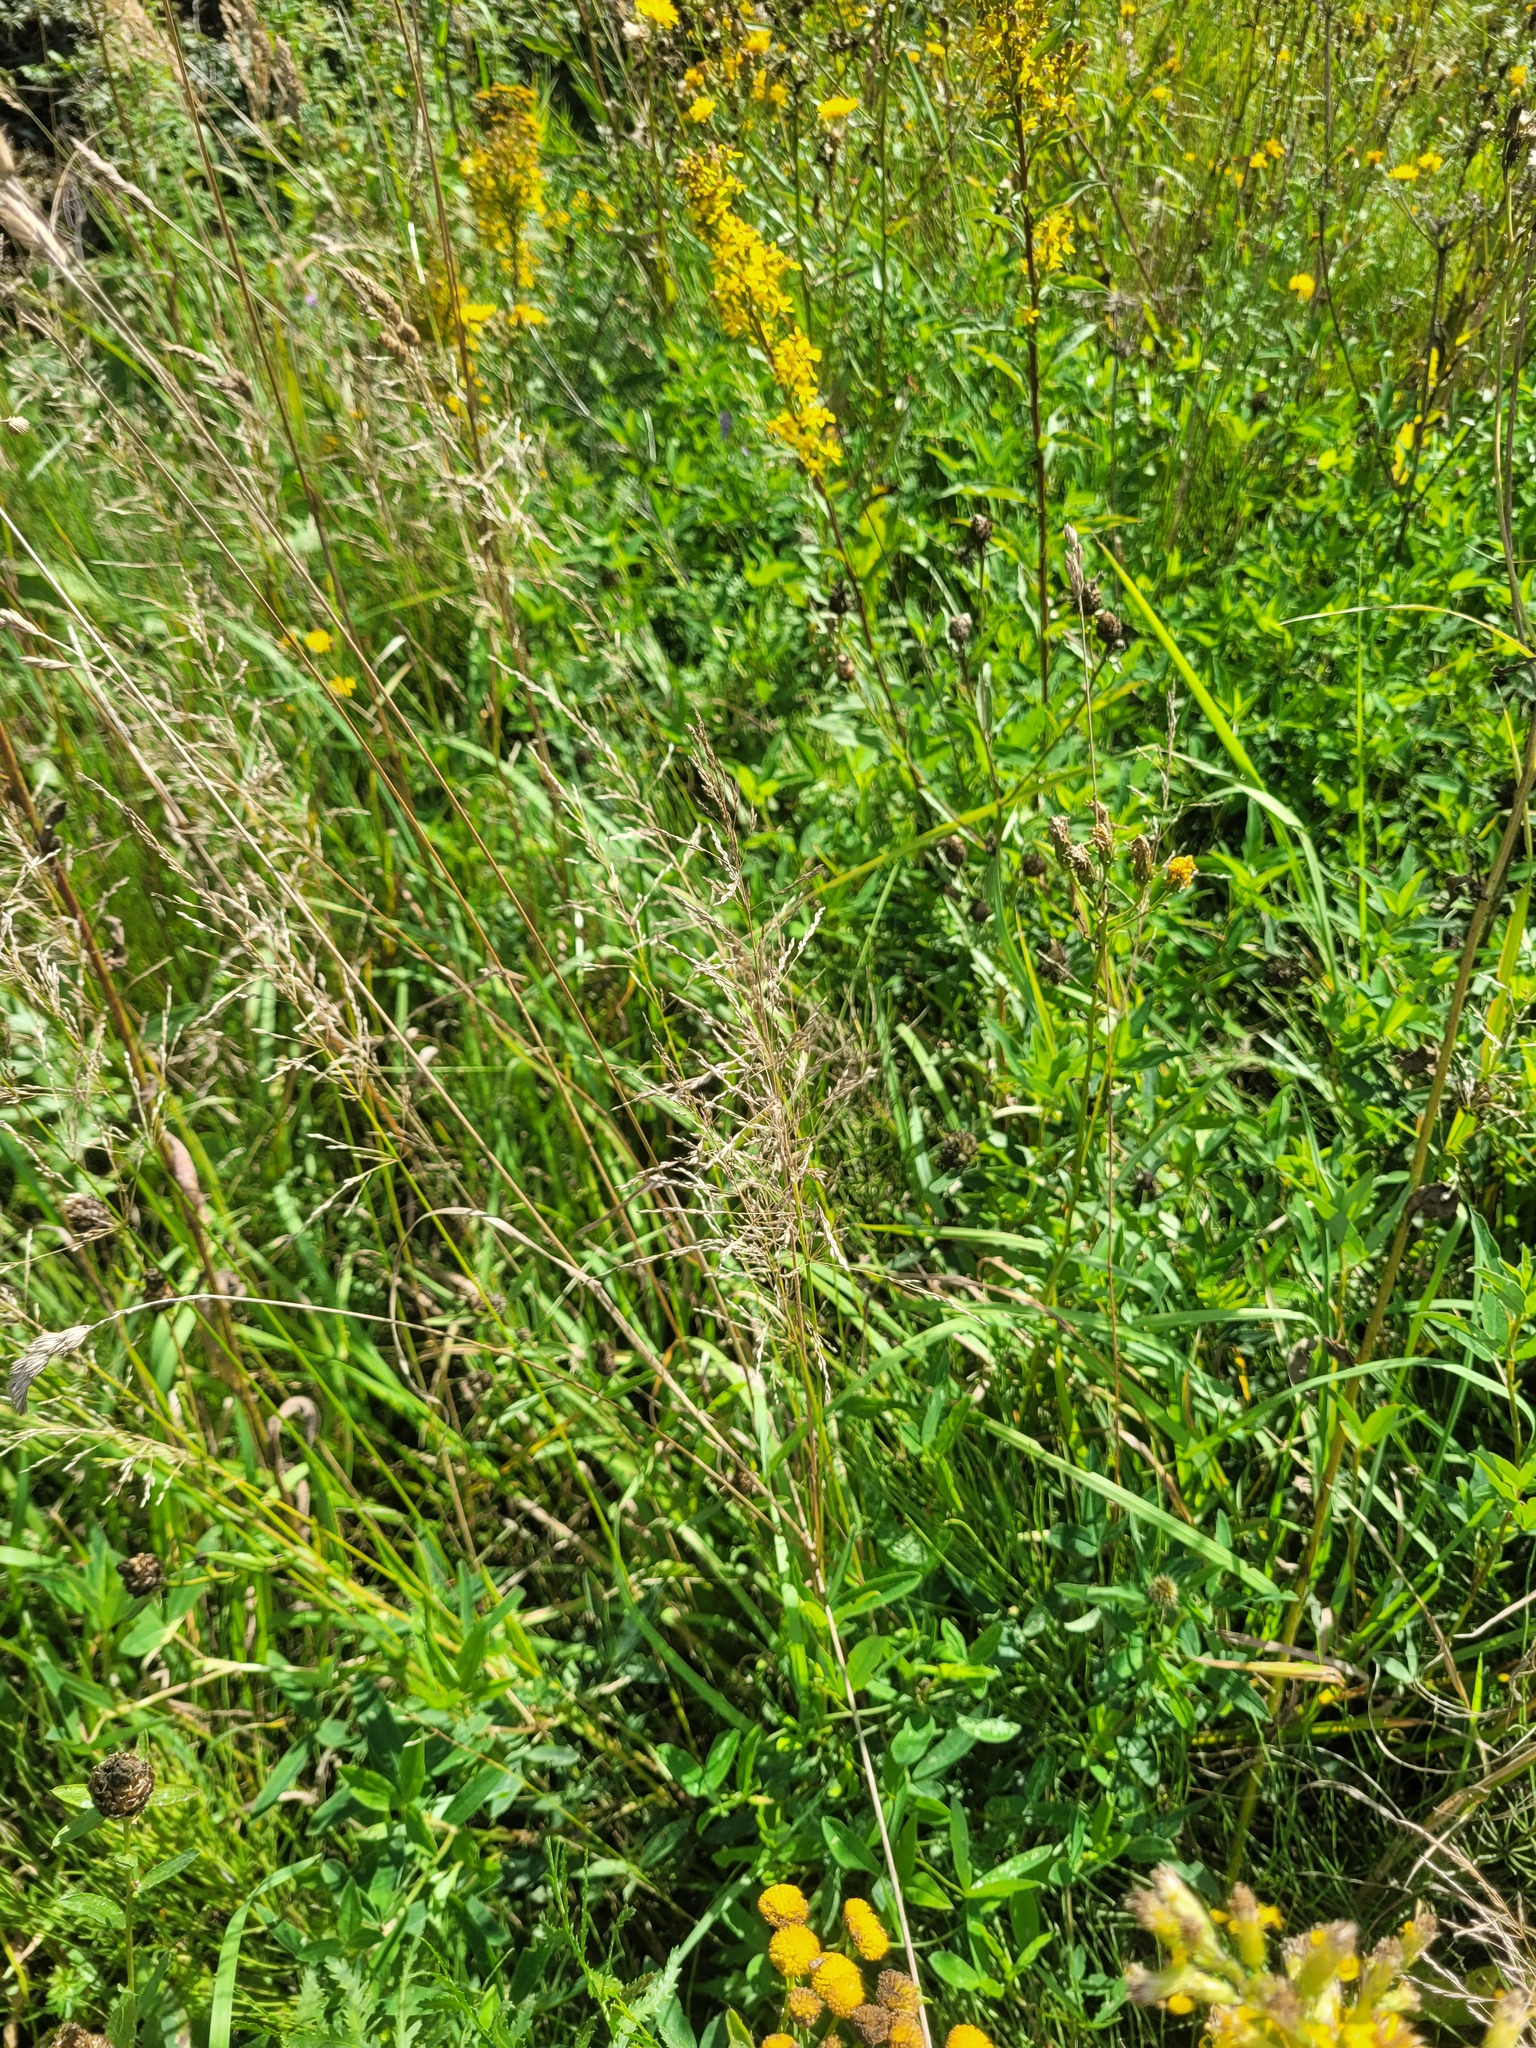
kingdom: Plantae
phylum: Tracheophyta
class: Liliopsida
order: Poales
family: Poaceae
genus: Poa
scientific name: Poa palustris
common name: Swamp meadow-grass
